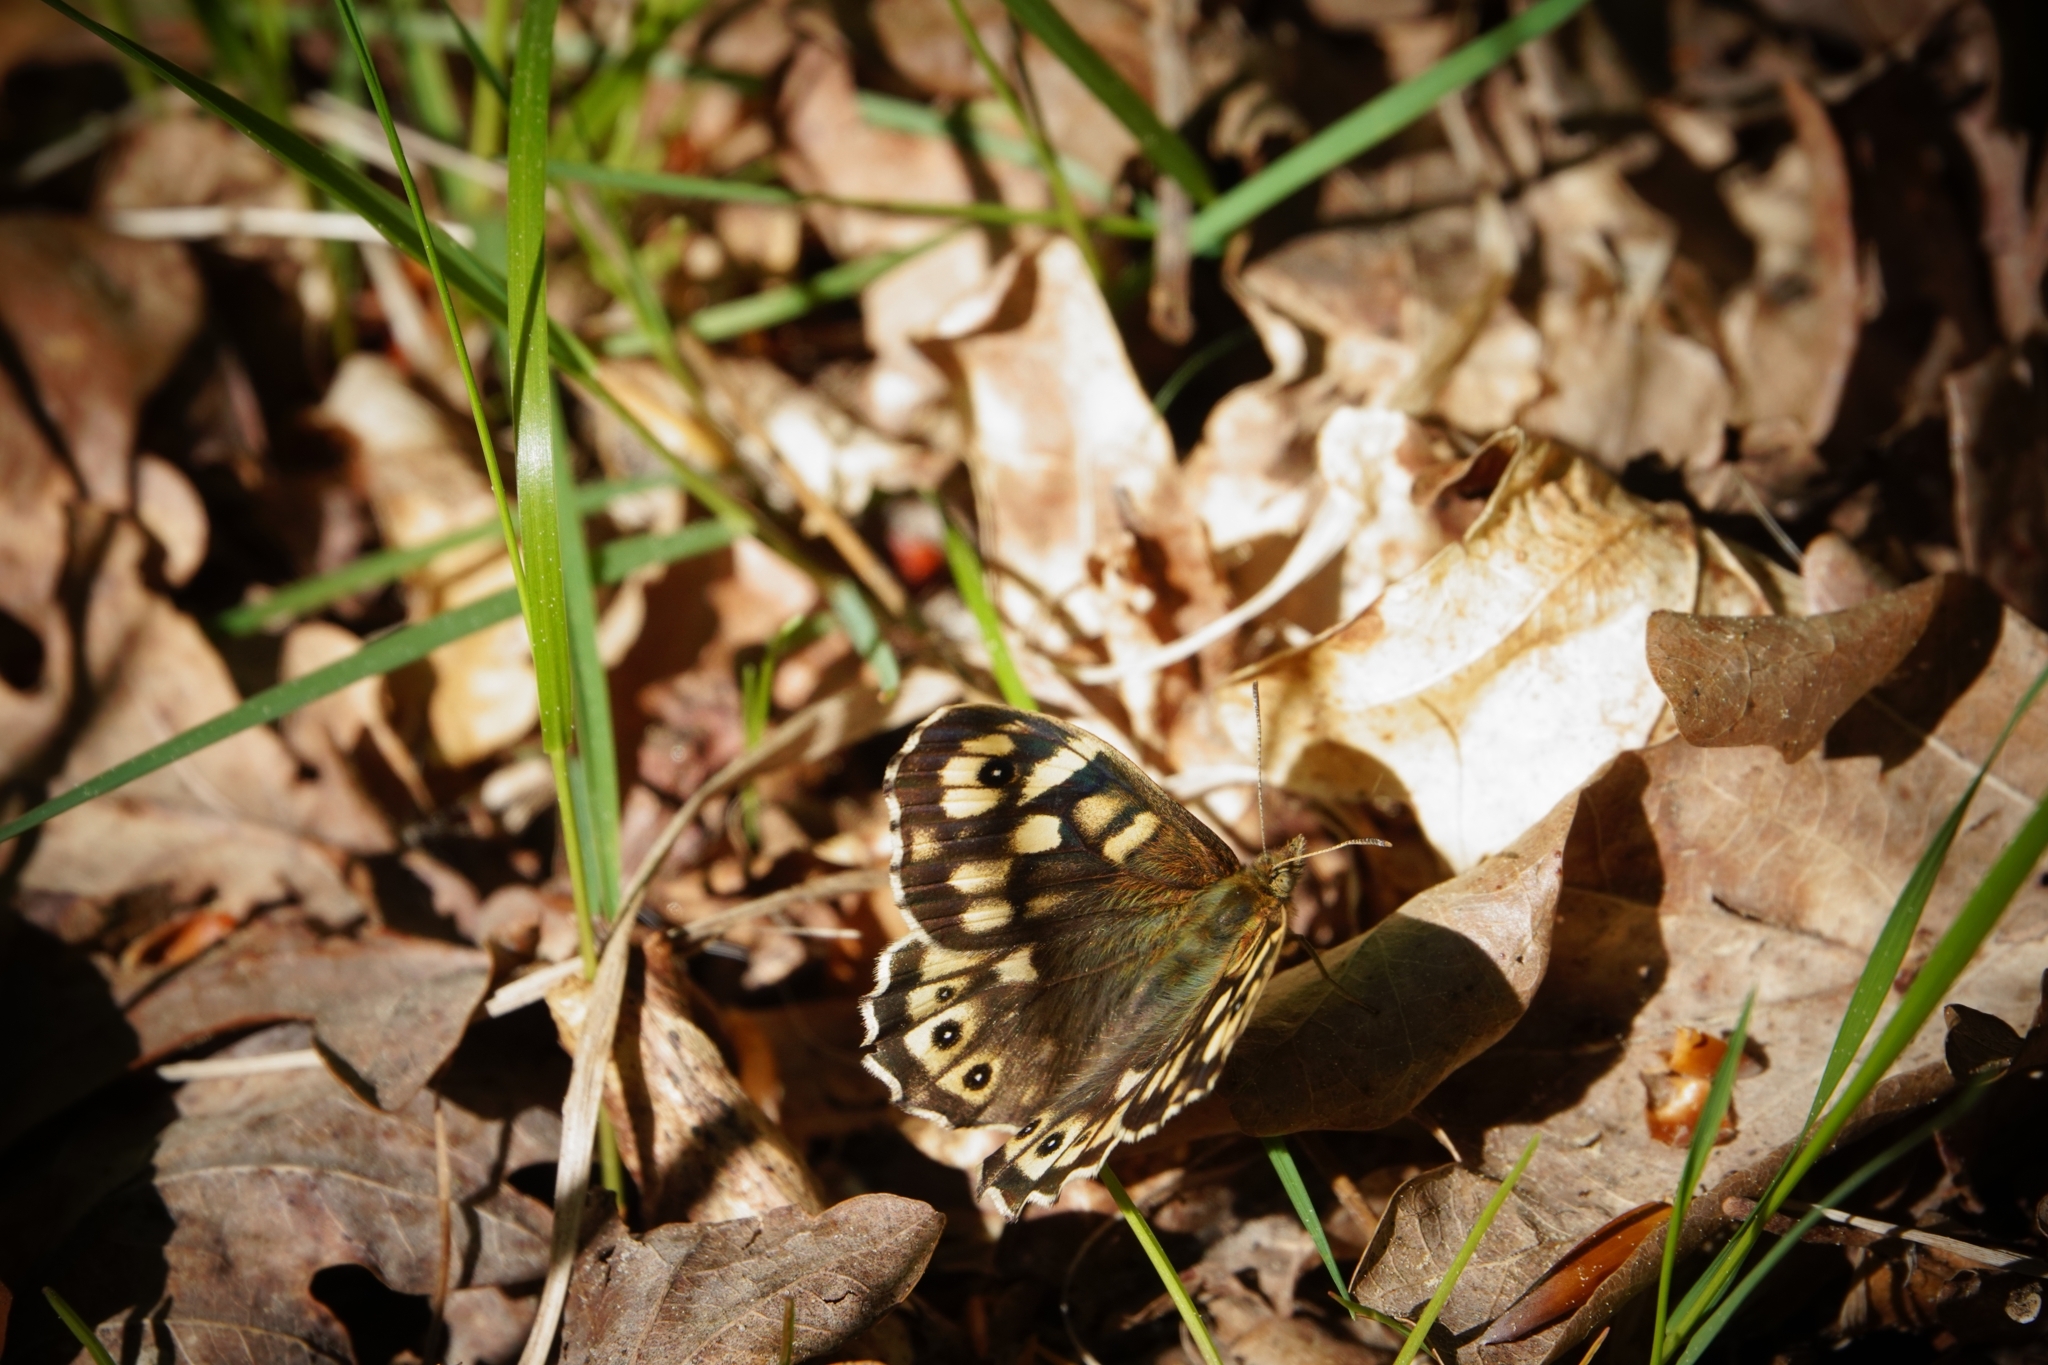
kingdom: Animalia
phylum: Arthropoda
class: Insecta
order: Lepidoptera
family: Nymphalidae
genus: Pararge
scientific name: Pararge aegeria
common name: Speckled wood
